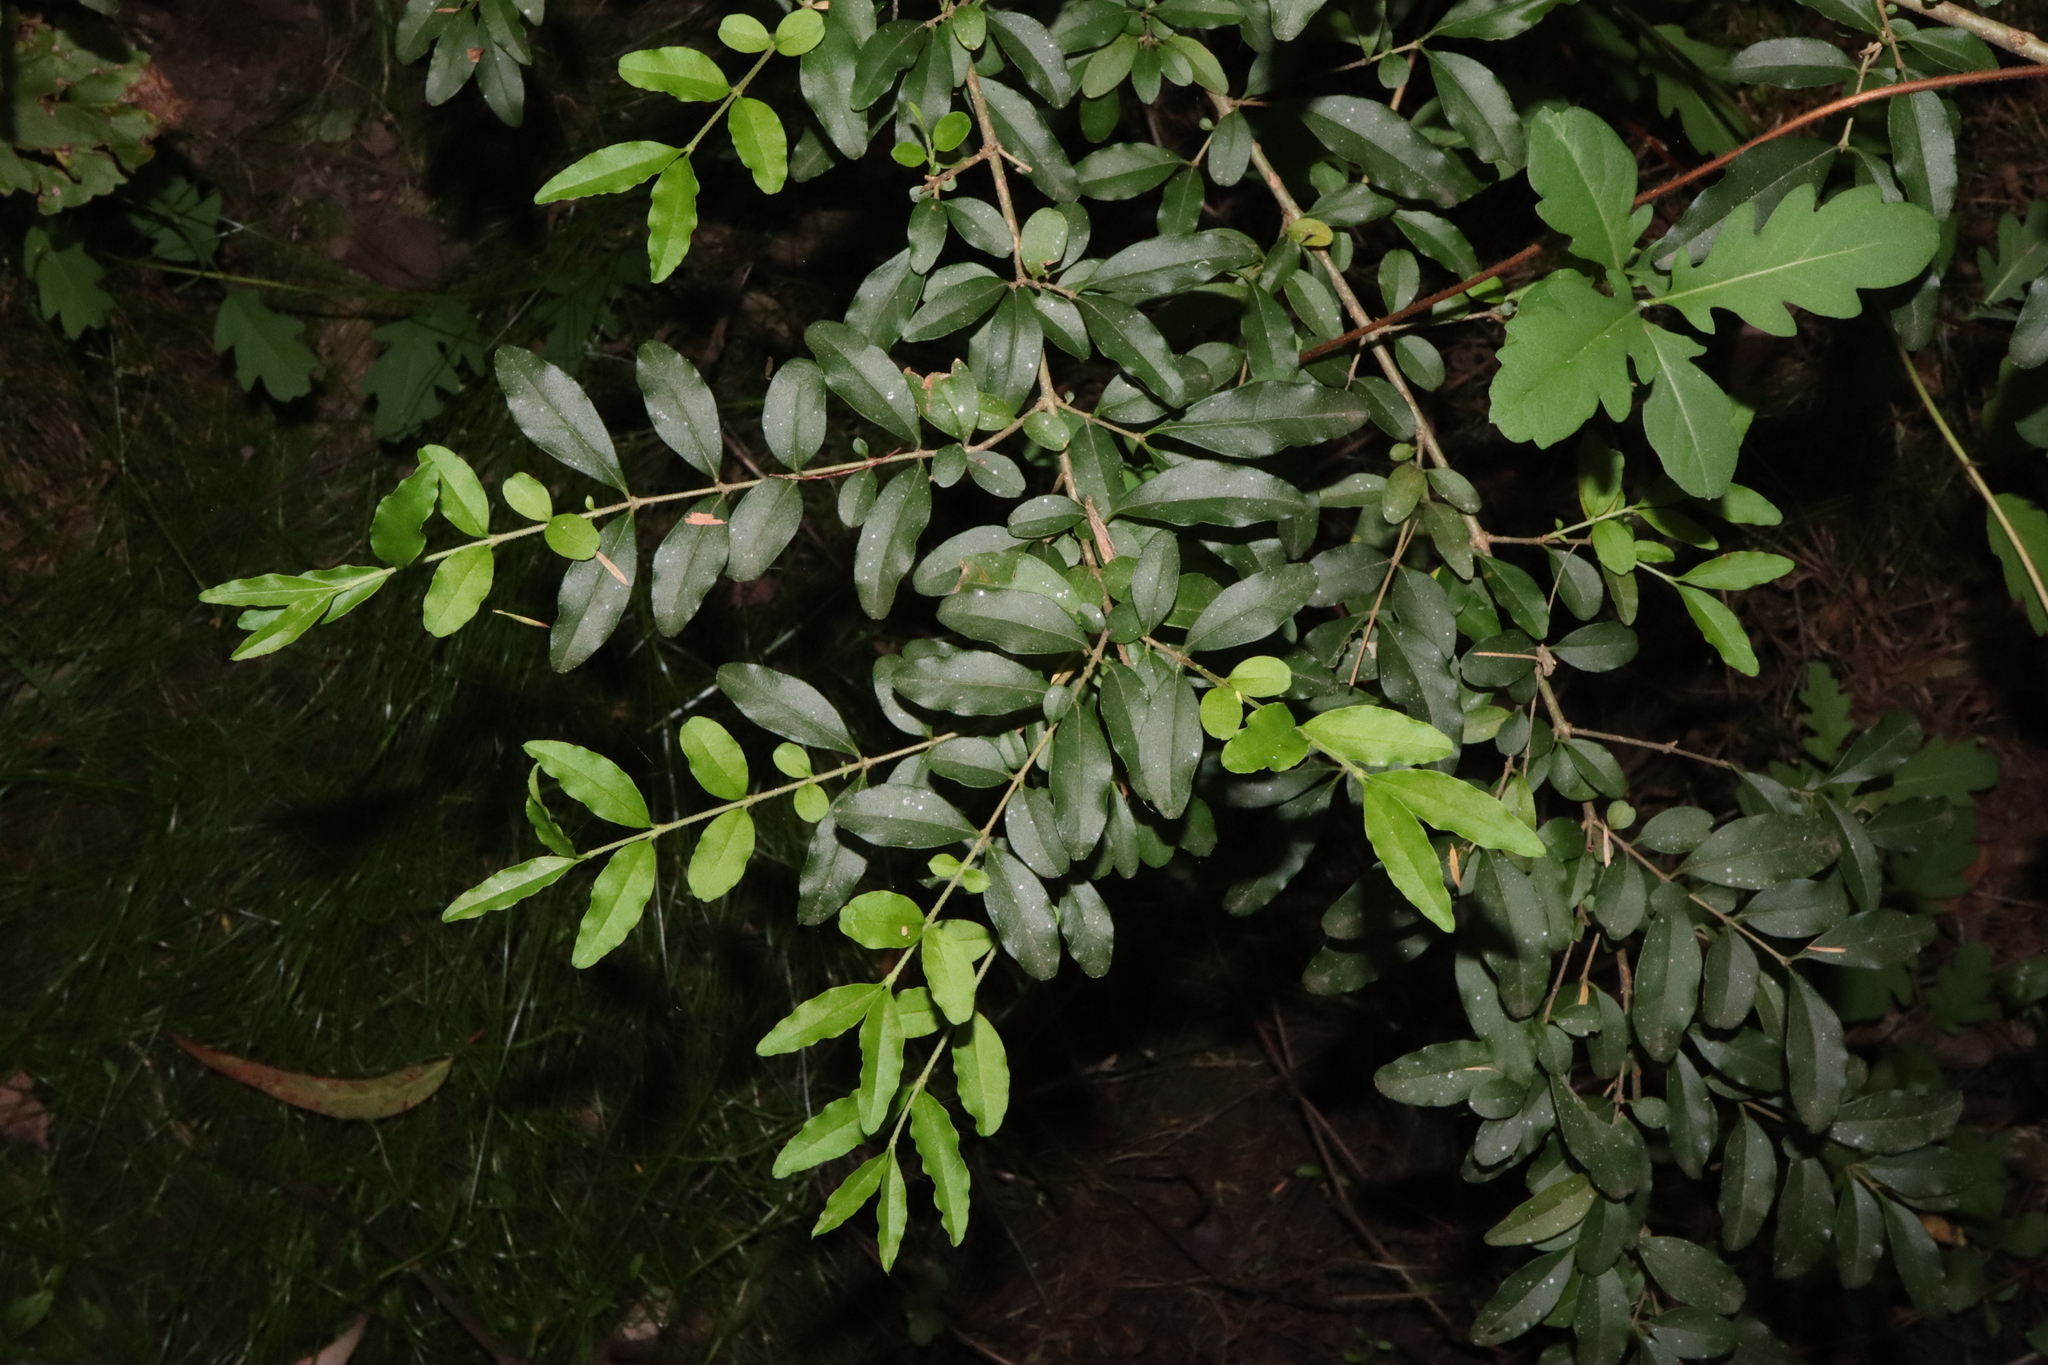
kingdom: Plantae
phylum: Tracheophyta
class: Magnoliopsida
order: Lamiales
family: Oleaceae
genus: Ligustrum
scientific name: Ligustrum sinense
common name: Chinese privet
